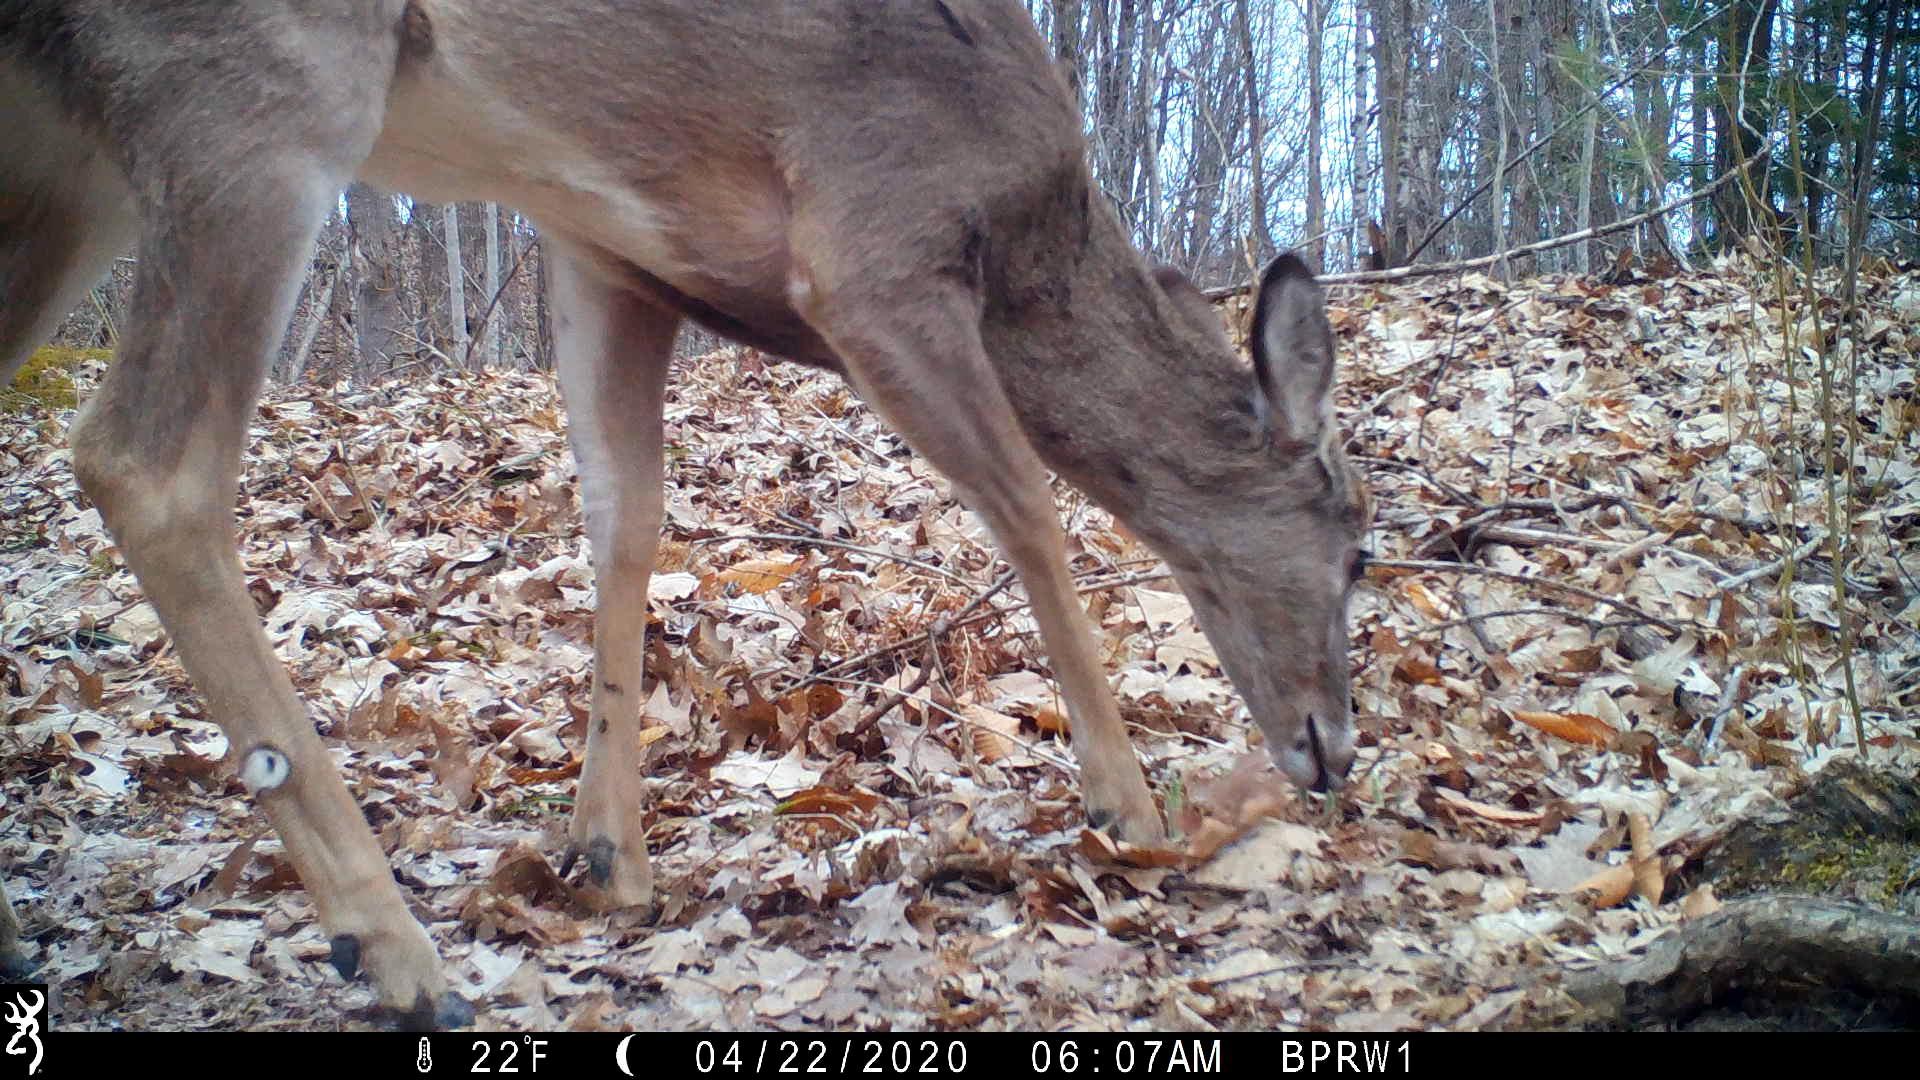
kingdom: Animalia
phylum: Chordata
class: Mammalia
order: Artiodactyla
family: Cervidae
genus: Odocoileus
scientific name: Odocoileus virginianus
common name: White-tailed deer
